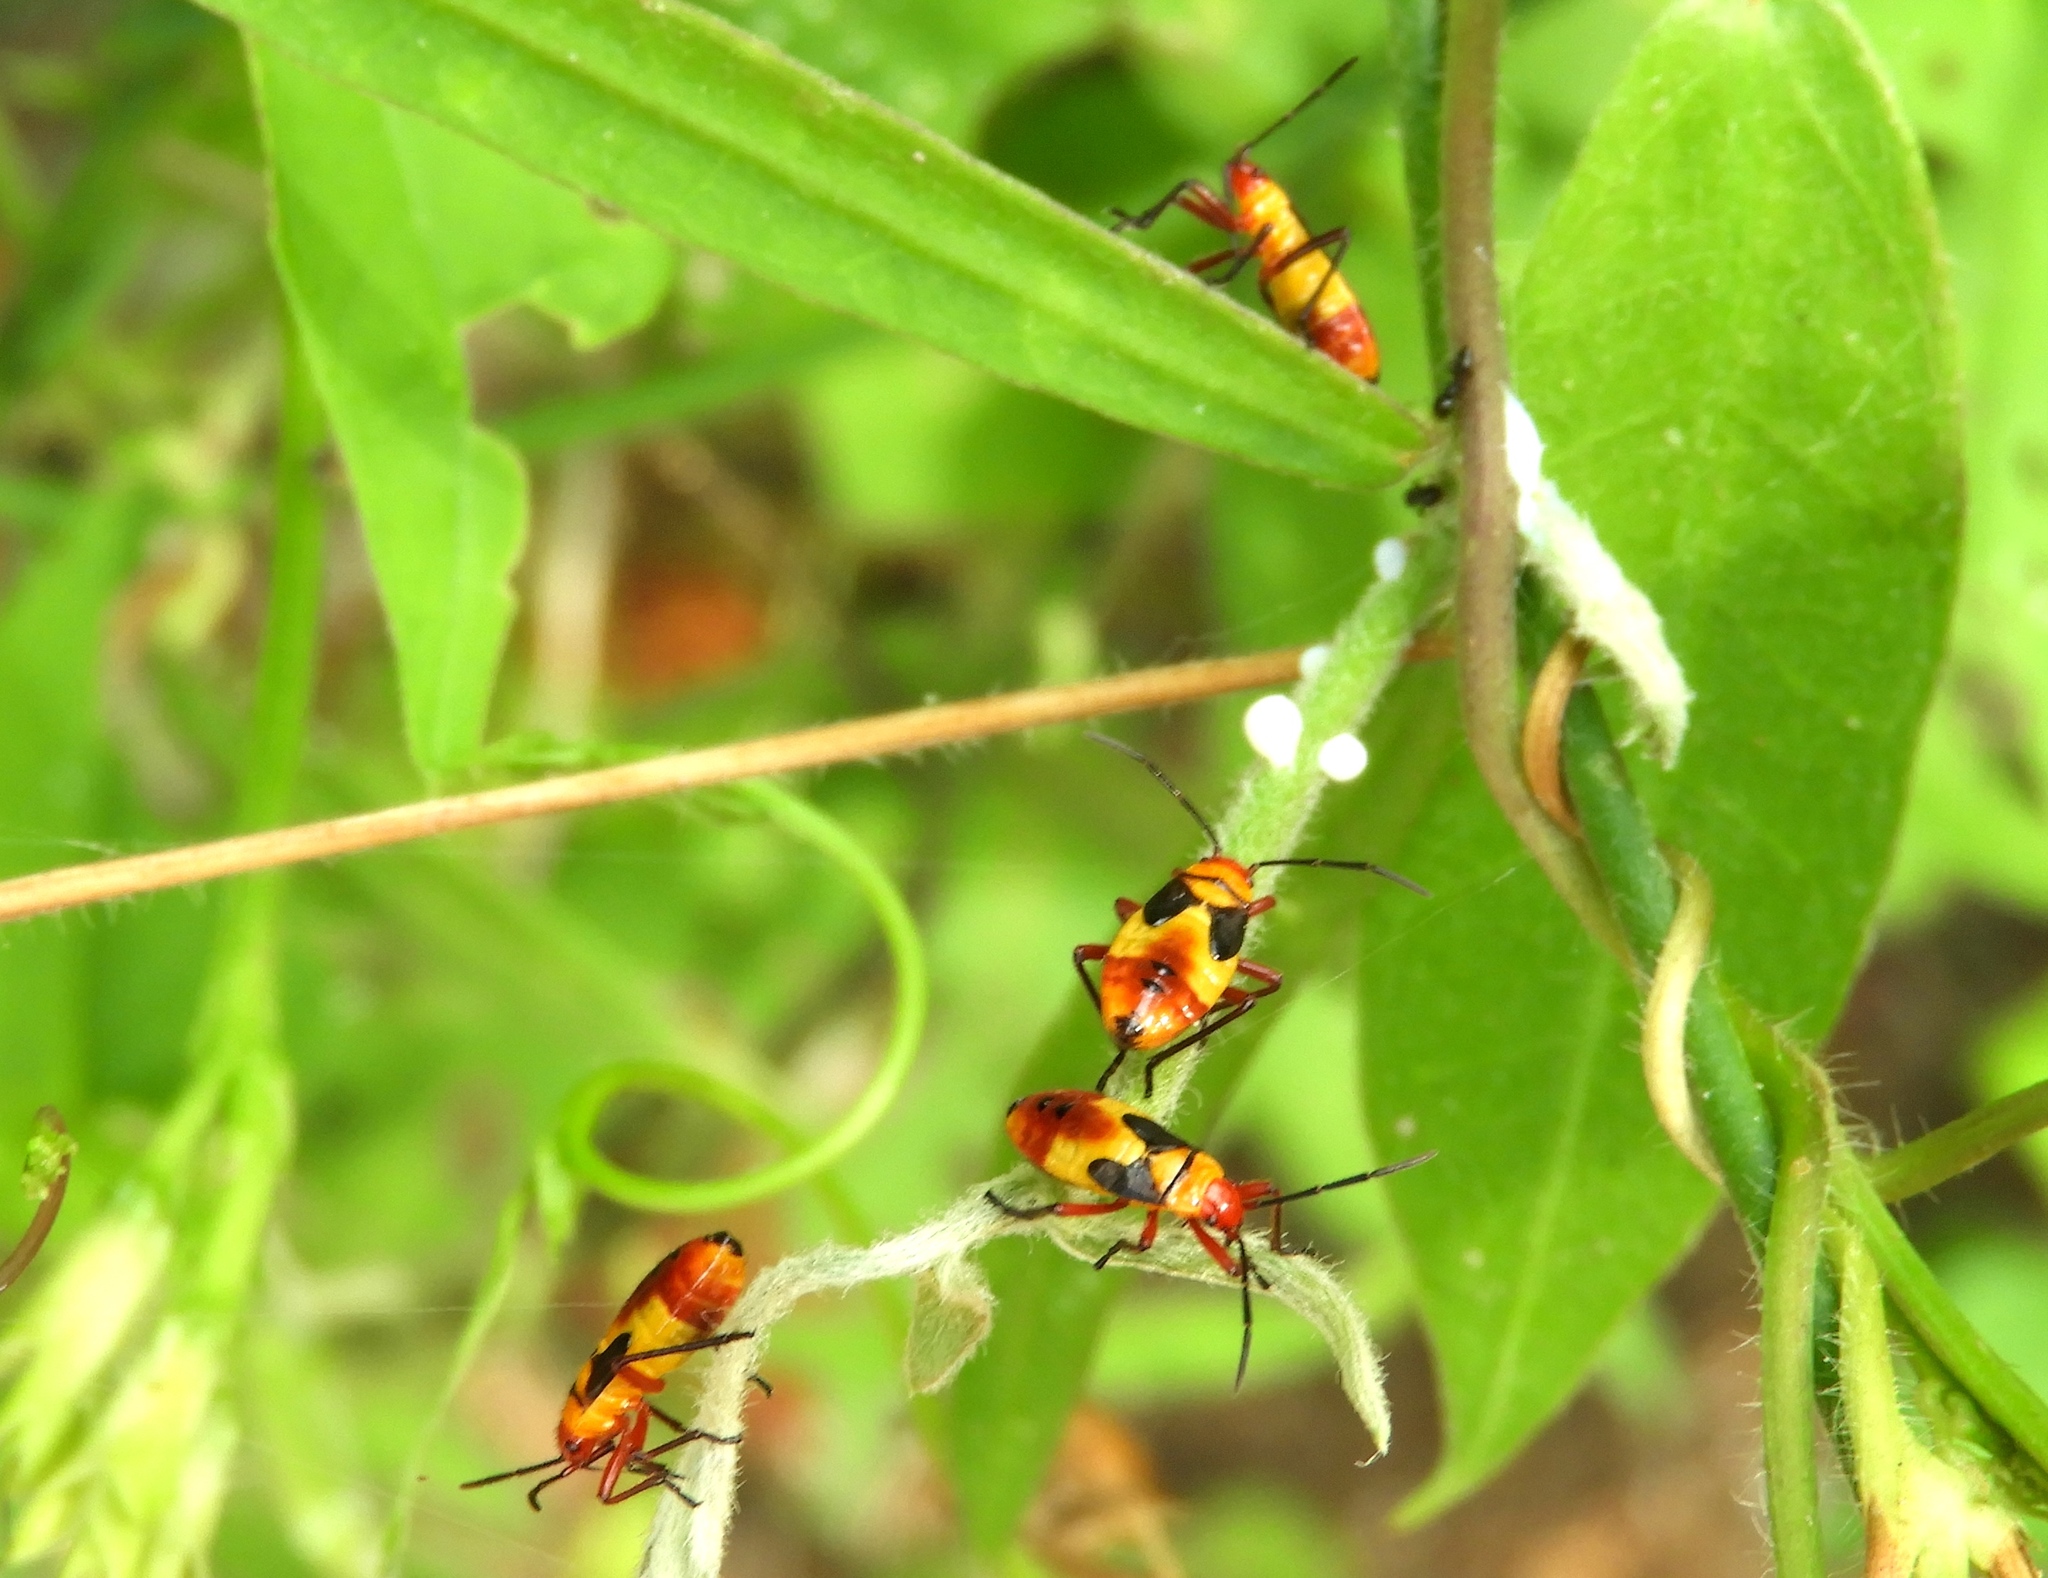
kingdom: Animalia
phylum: Arthropoda
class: Insecta
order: Hemiptera
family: Lygaeidae
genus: Oncopeltus
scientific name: Oncopeltus guttaloides
